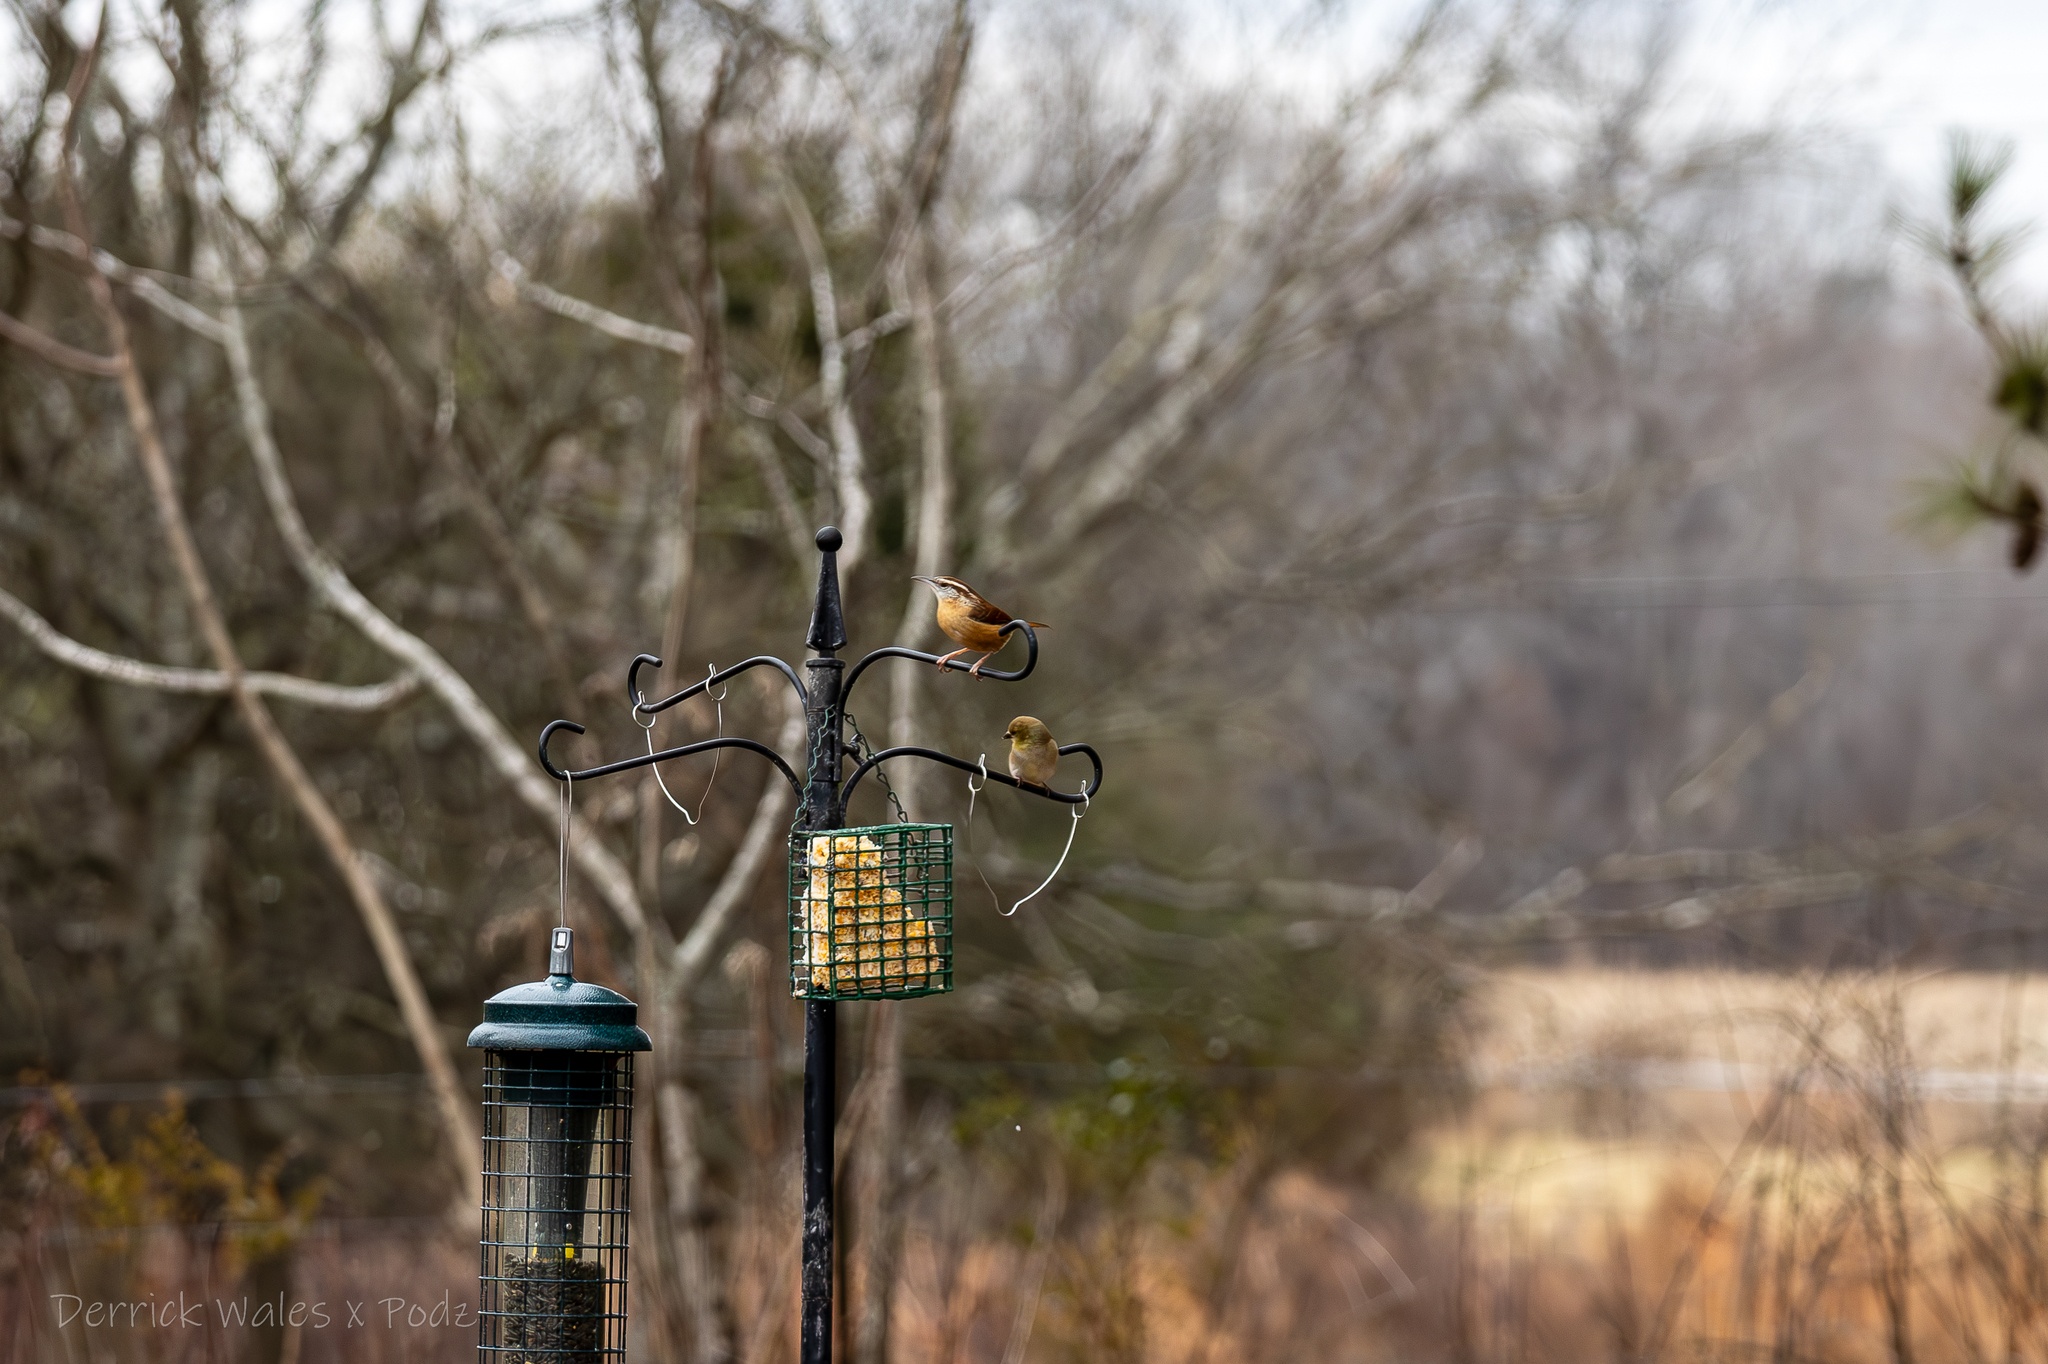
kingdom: Animalia
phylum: Chordata
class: Aves
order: Passeriformes
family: Fringillidae
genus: Spinus
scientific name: Spinus tristis
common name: American goldfinch
